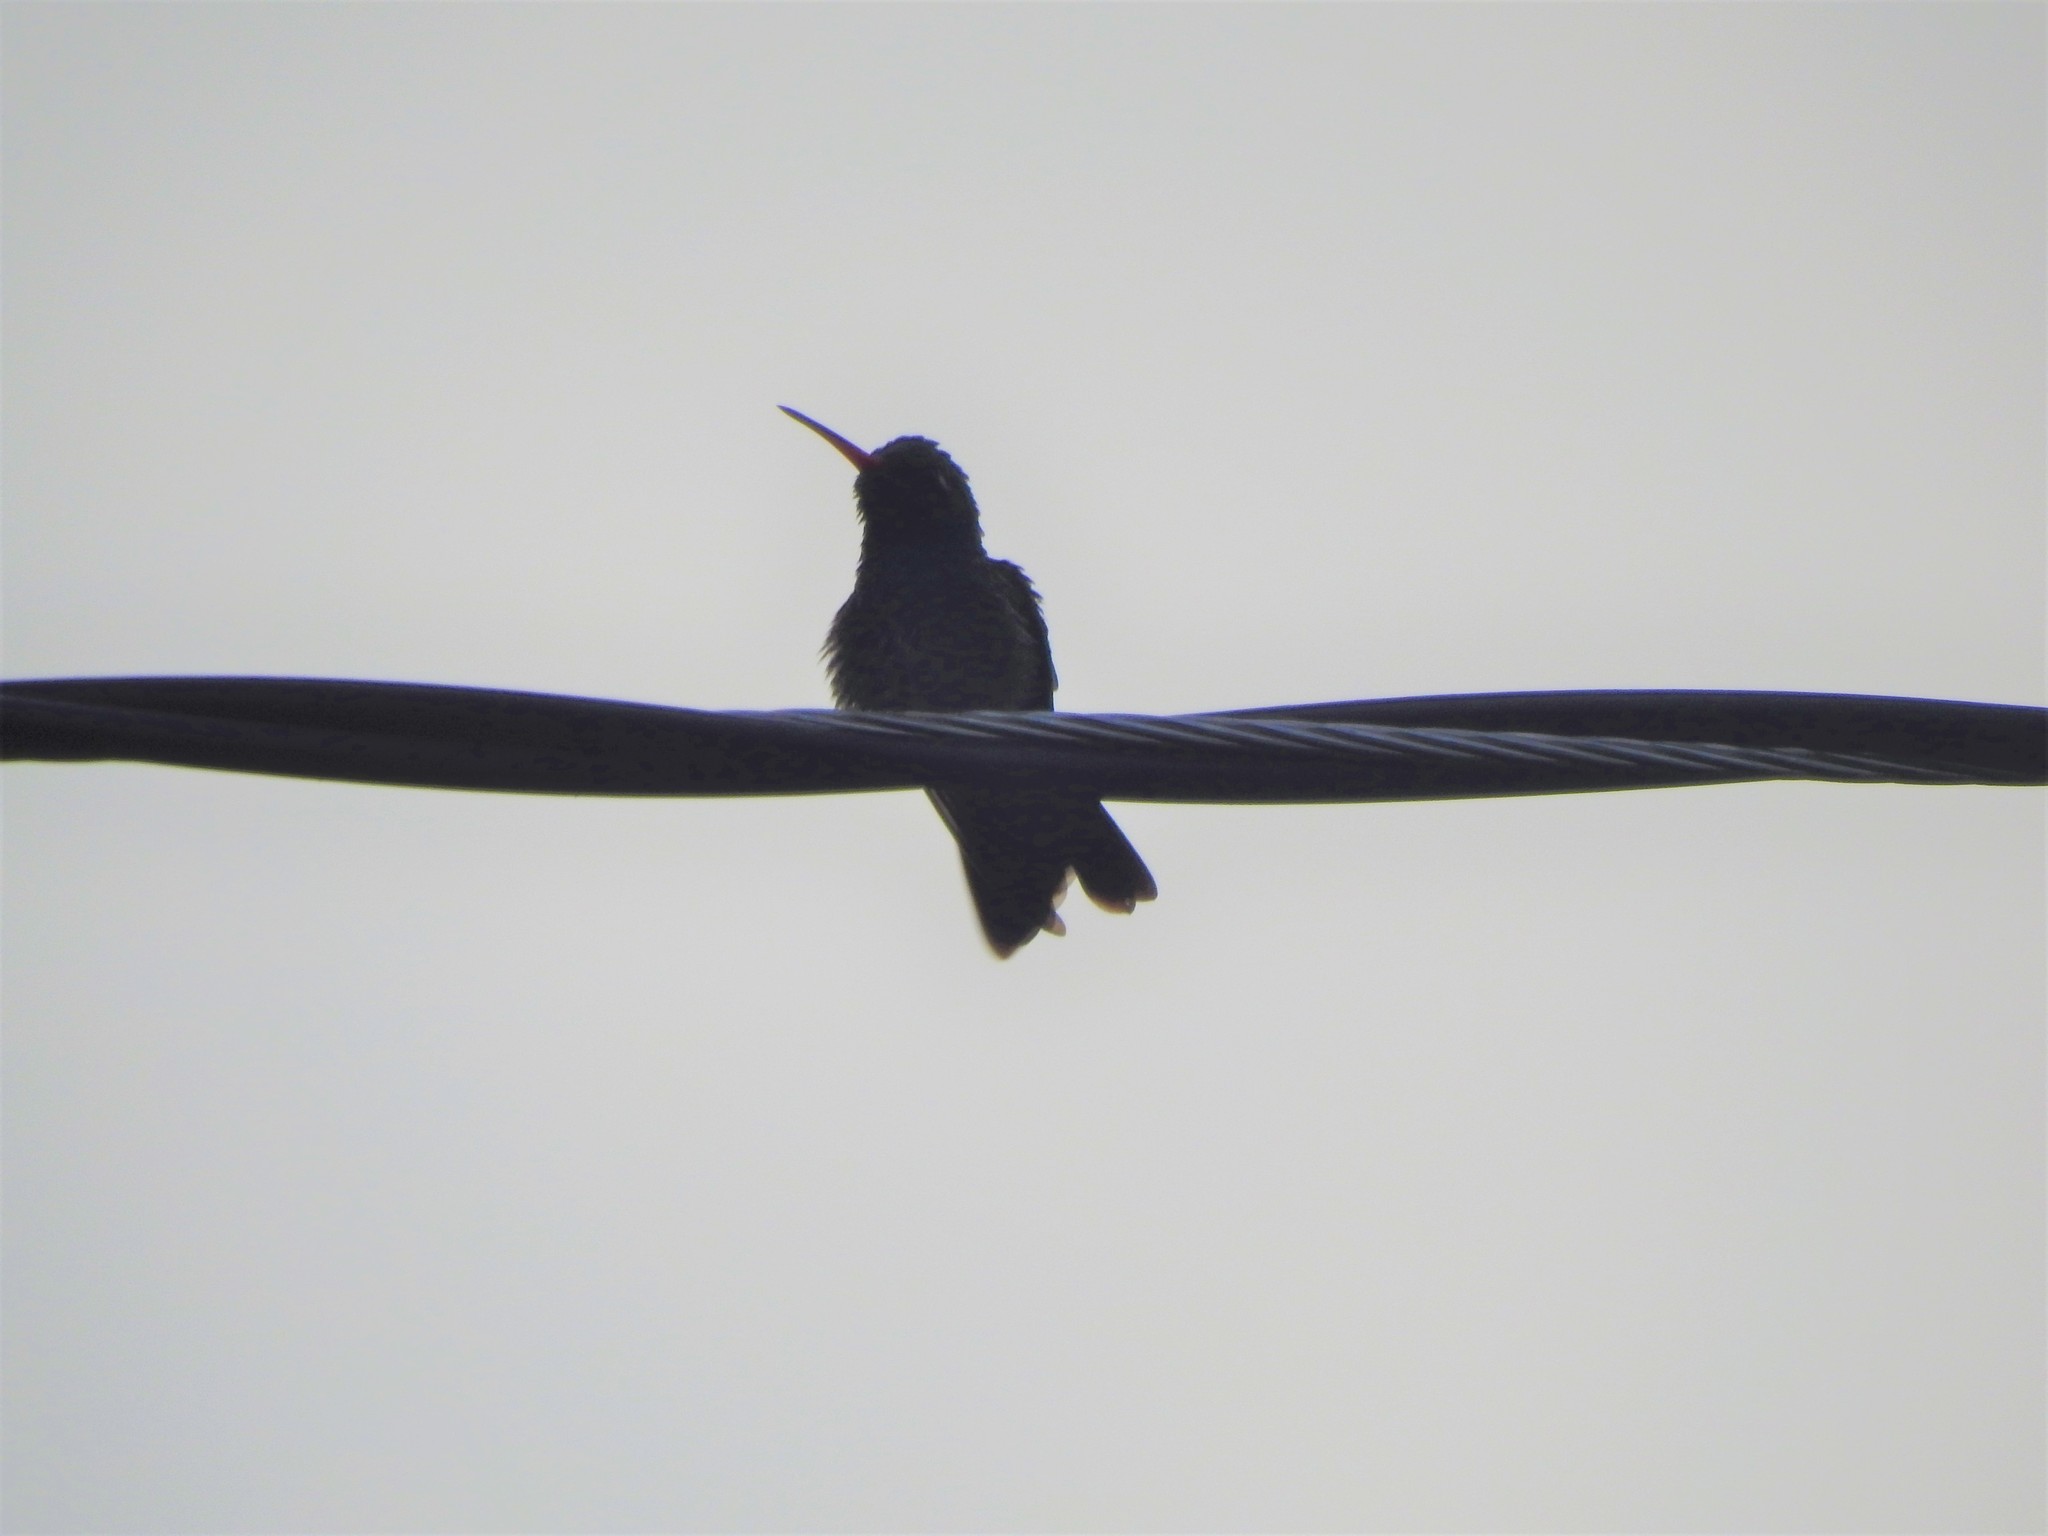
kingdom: Animalia
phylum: Chordata
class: Aves
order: Apodiformes
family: Trochilidae
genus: Cynanthus
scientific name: Cynanthus latirostris
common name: Broad-billed hummingbird
